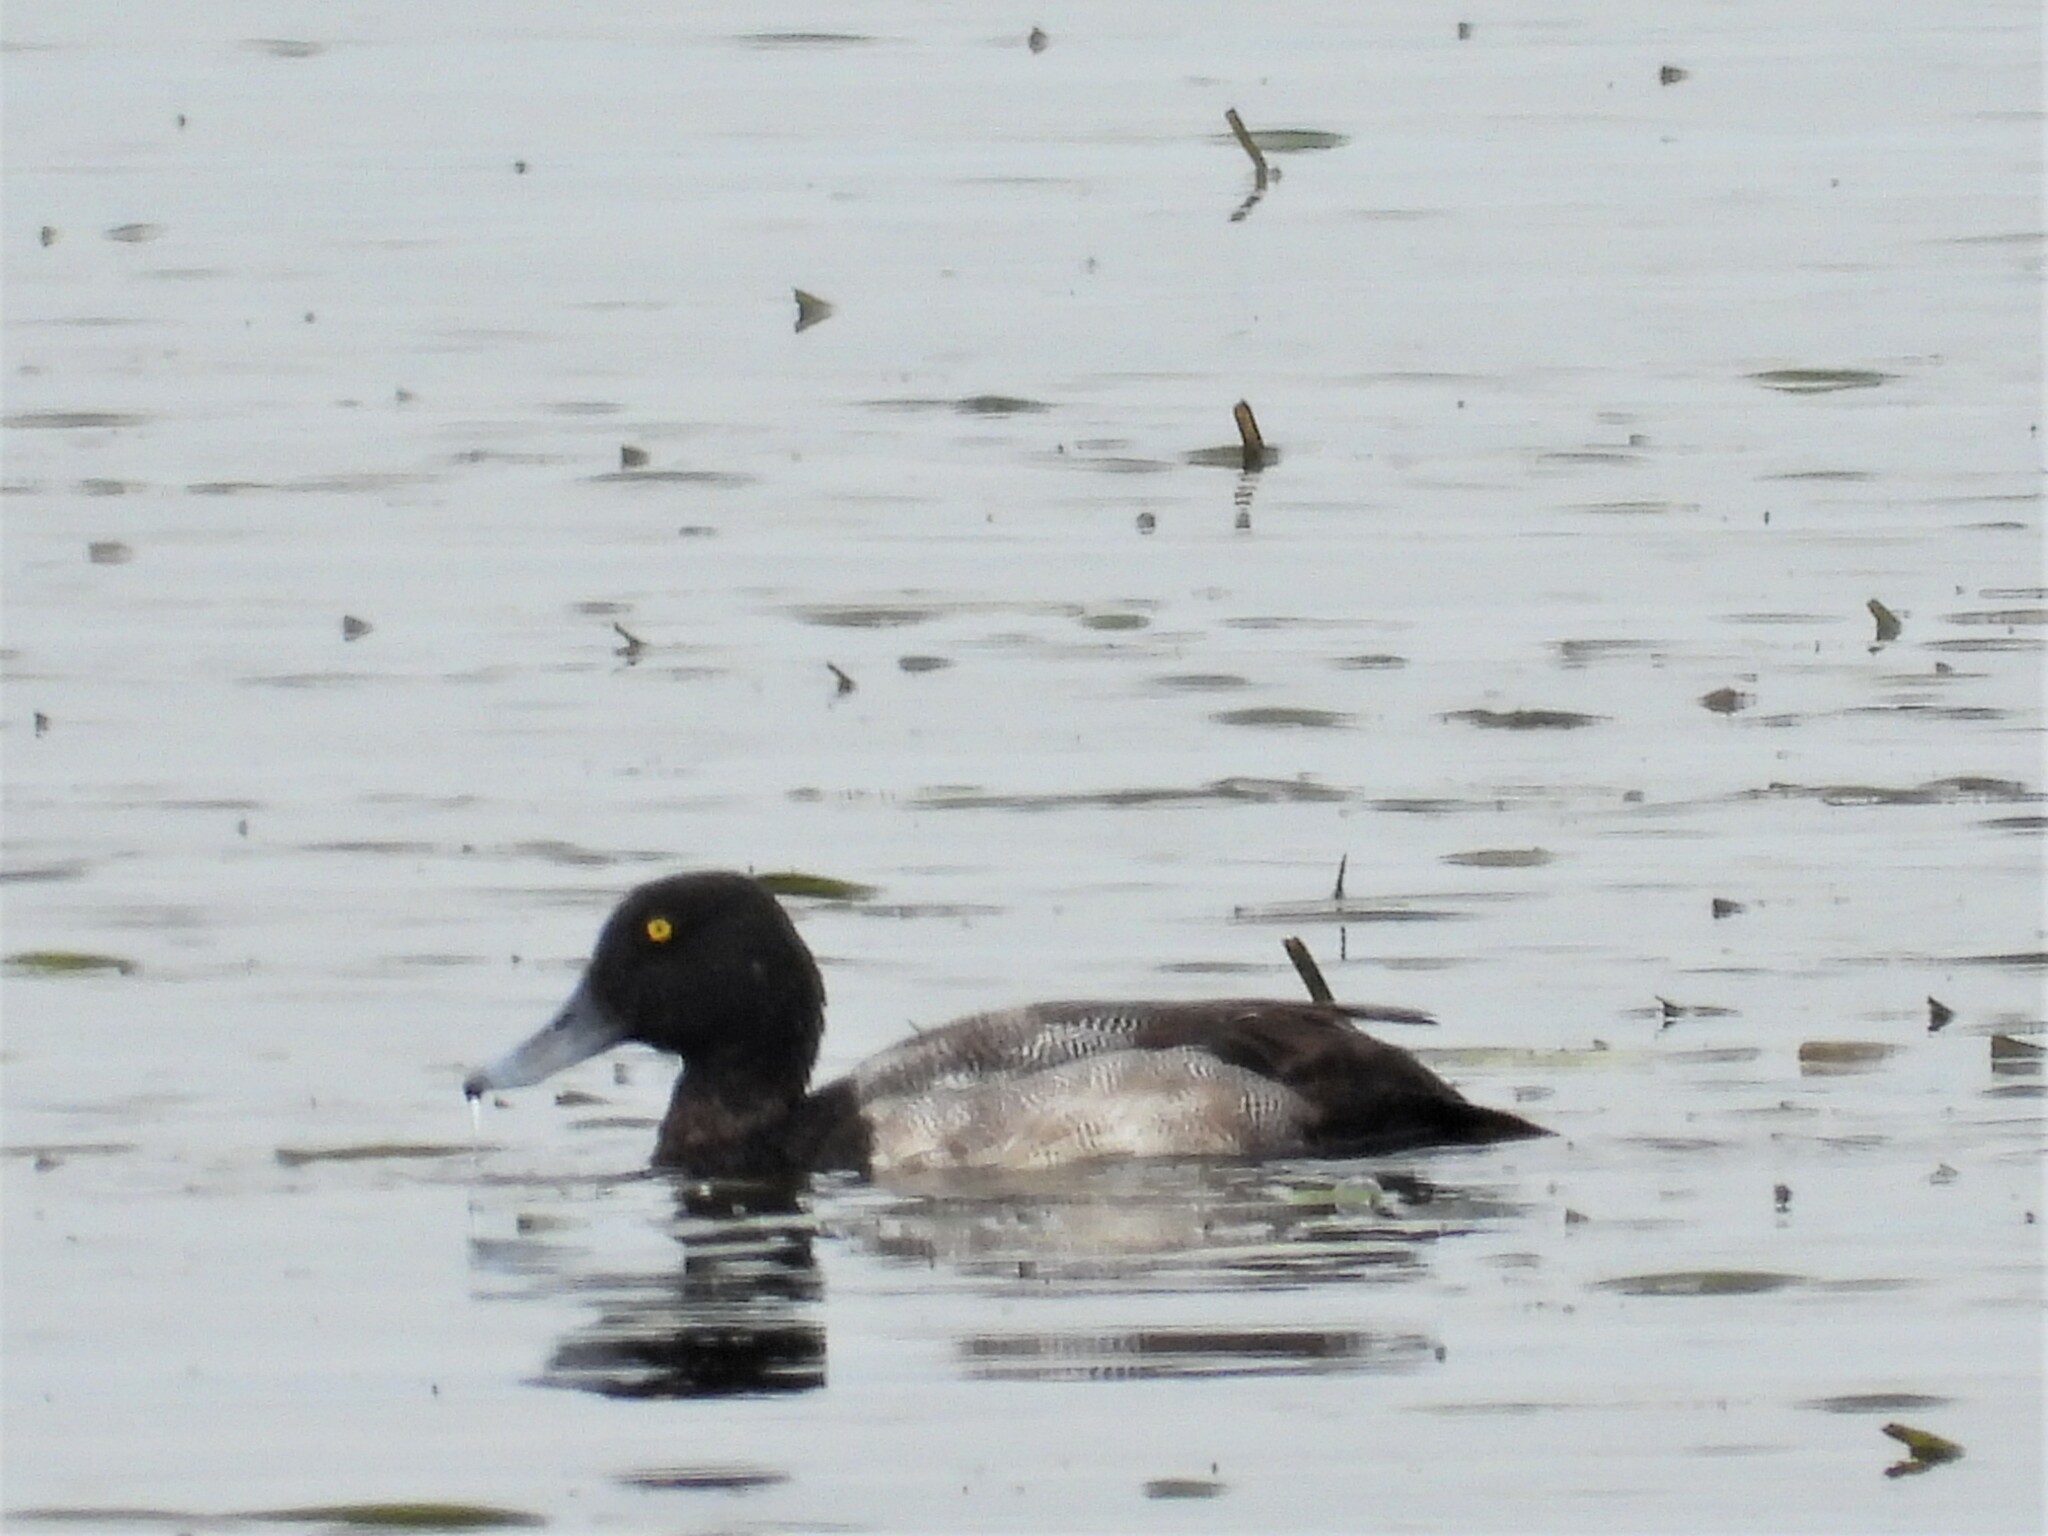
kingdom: Animalia
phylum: Chordata
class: Aves
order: Anseriformes
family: Anatidae
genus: Aythya
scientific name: Aythya marila
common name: Greater scaup
